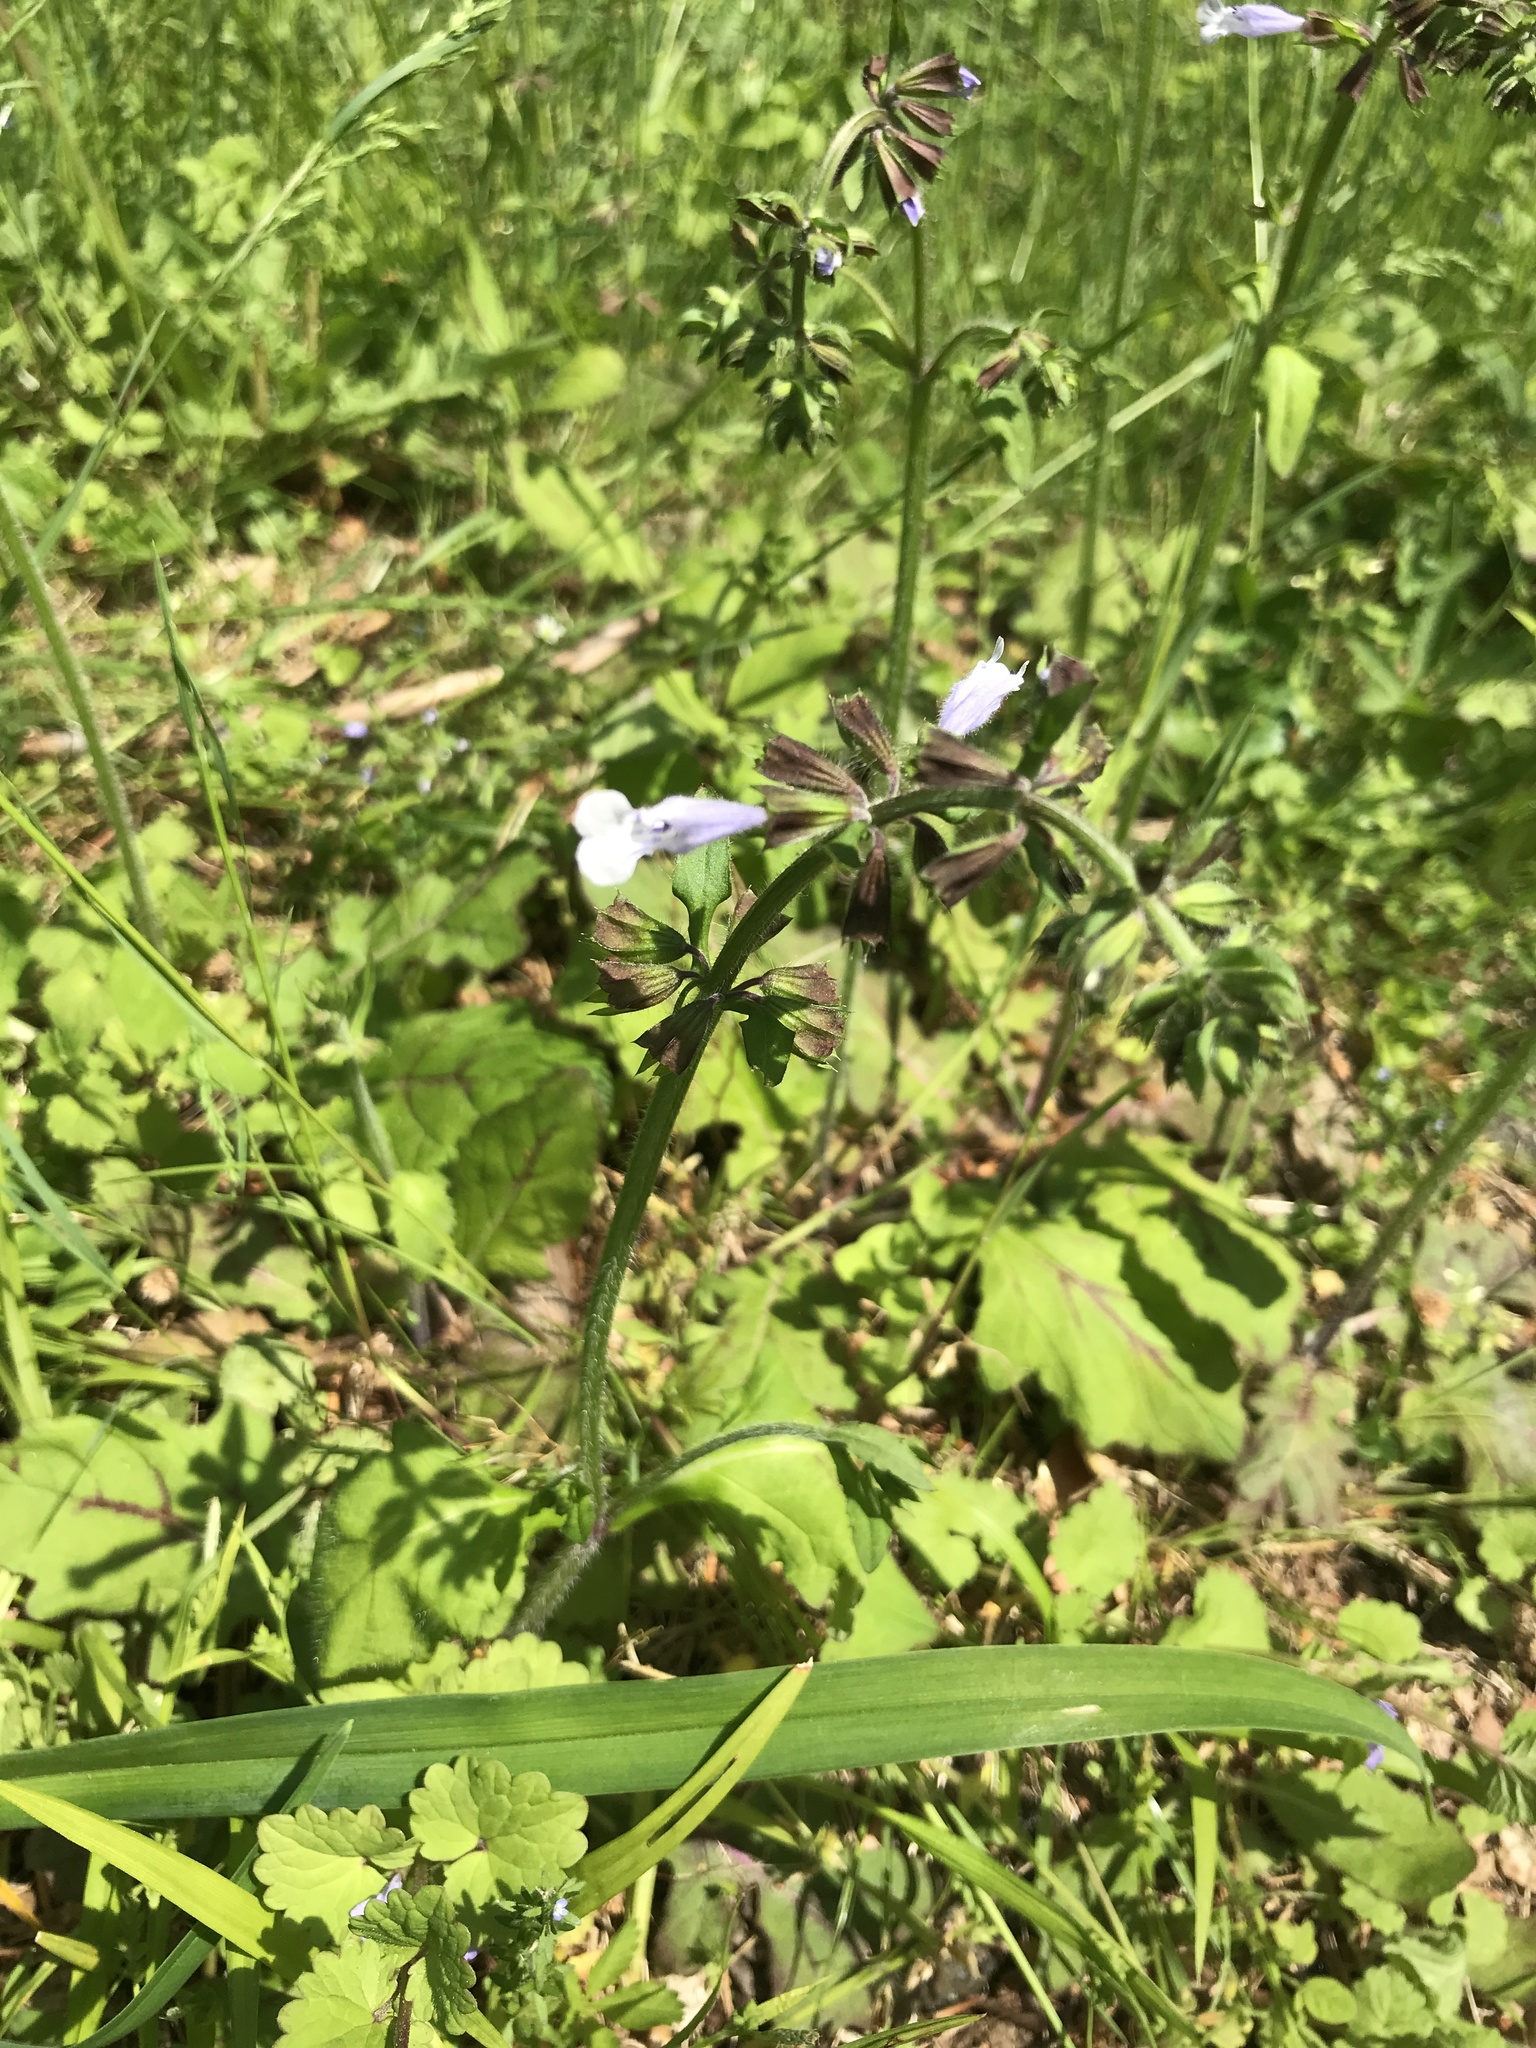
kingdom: Plantae
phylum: Tracheophyta
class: Magnoliopsida
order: Lamiales
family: Lamiaceae
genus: Salvia
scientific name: Salvia lyrata
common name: Cancerweed
